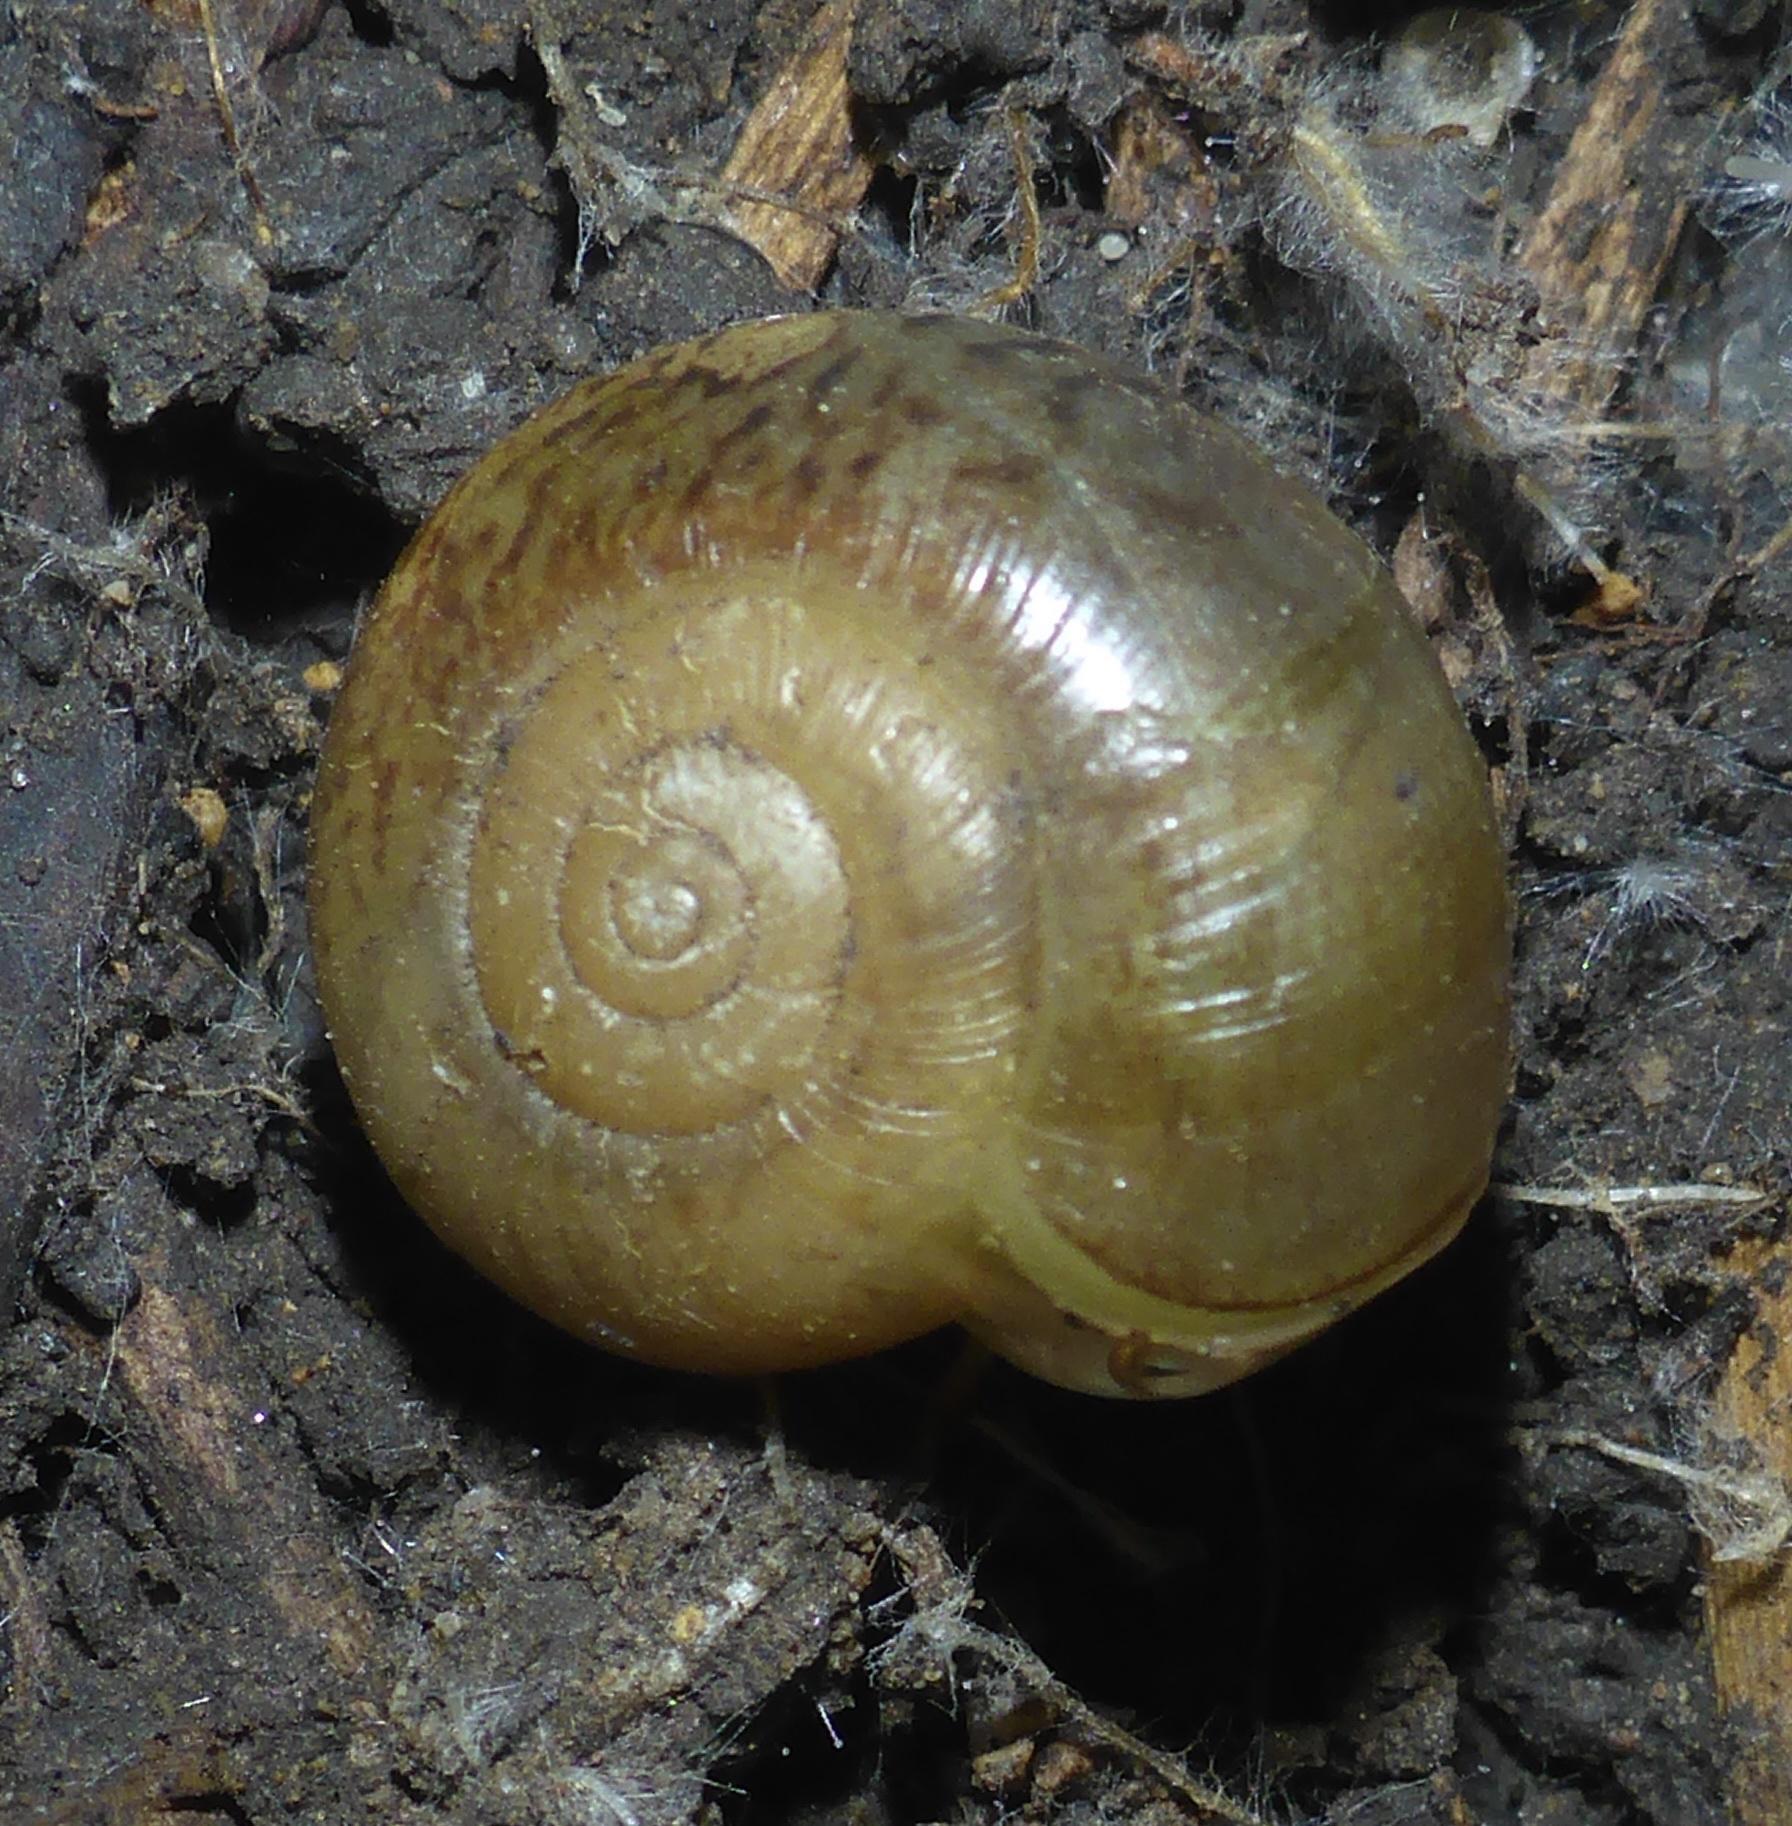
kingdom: Animalia
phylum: Mollusca
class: Gastropoda
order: Stylommatophora
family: Haplotrematidae
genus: Haplotrema
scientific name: Haplotrema minimum
